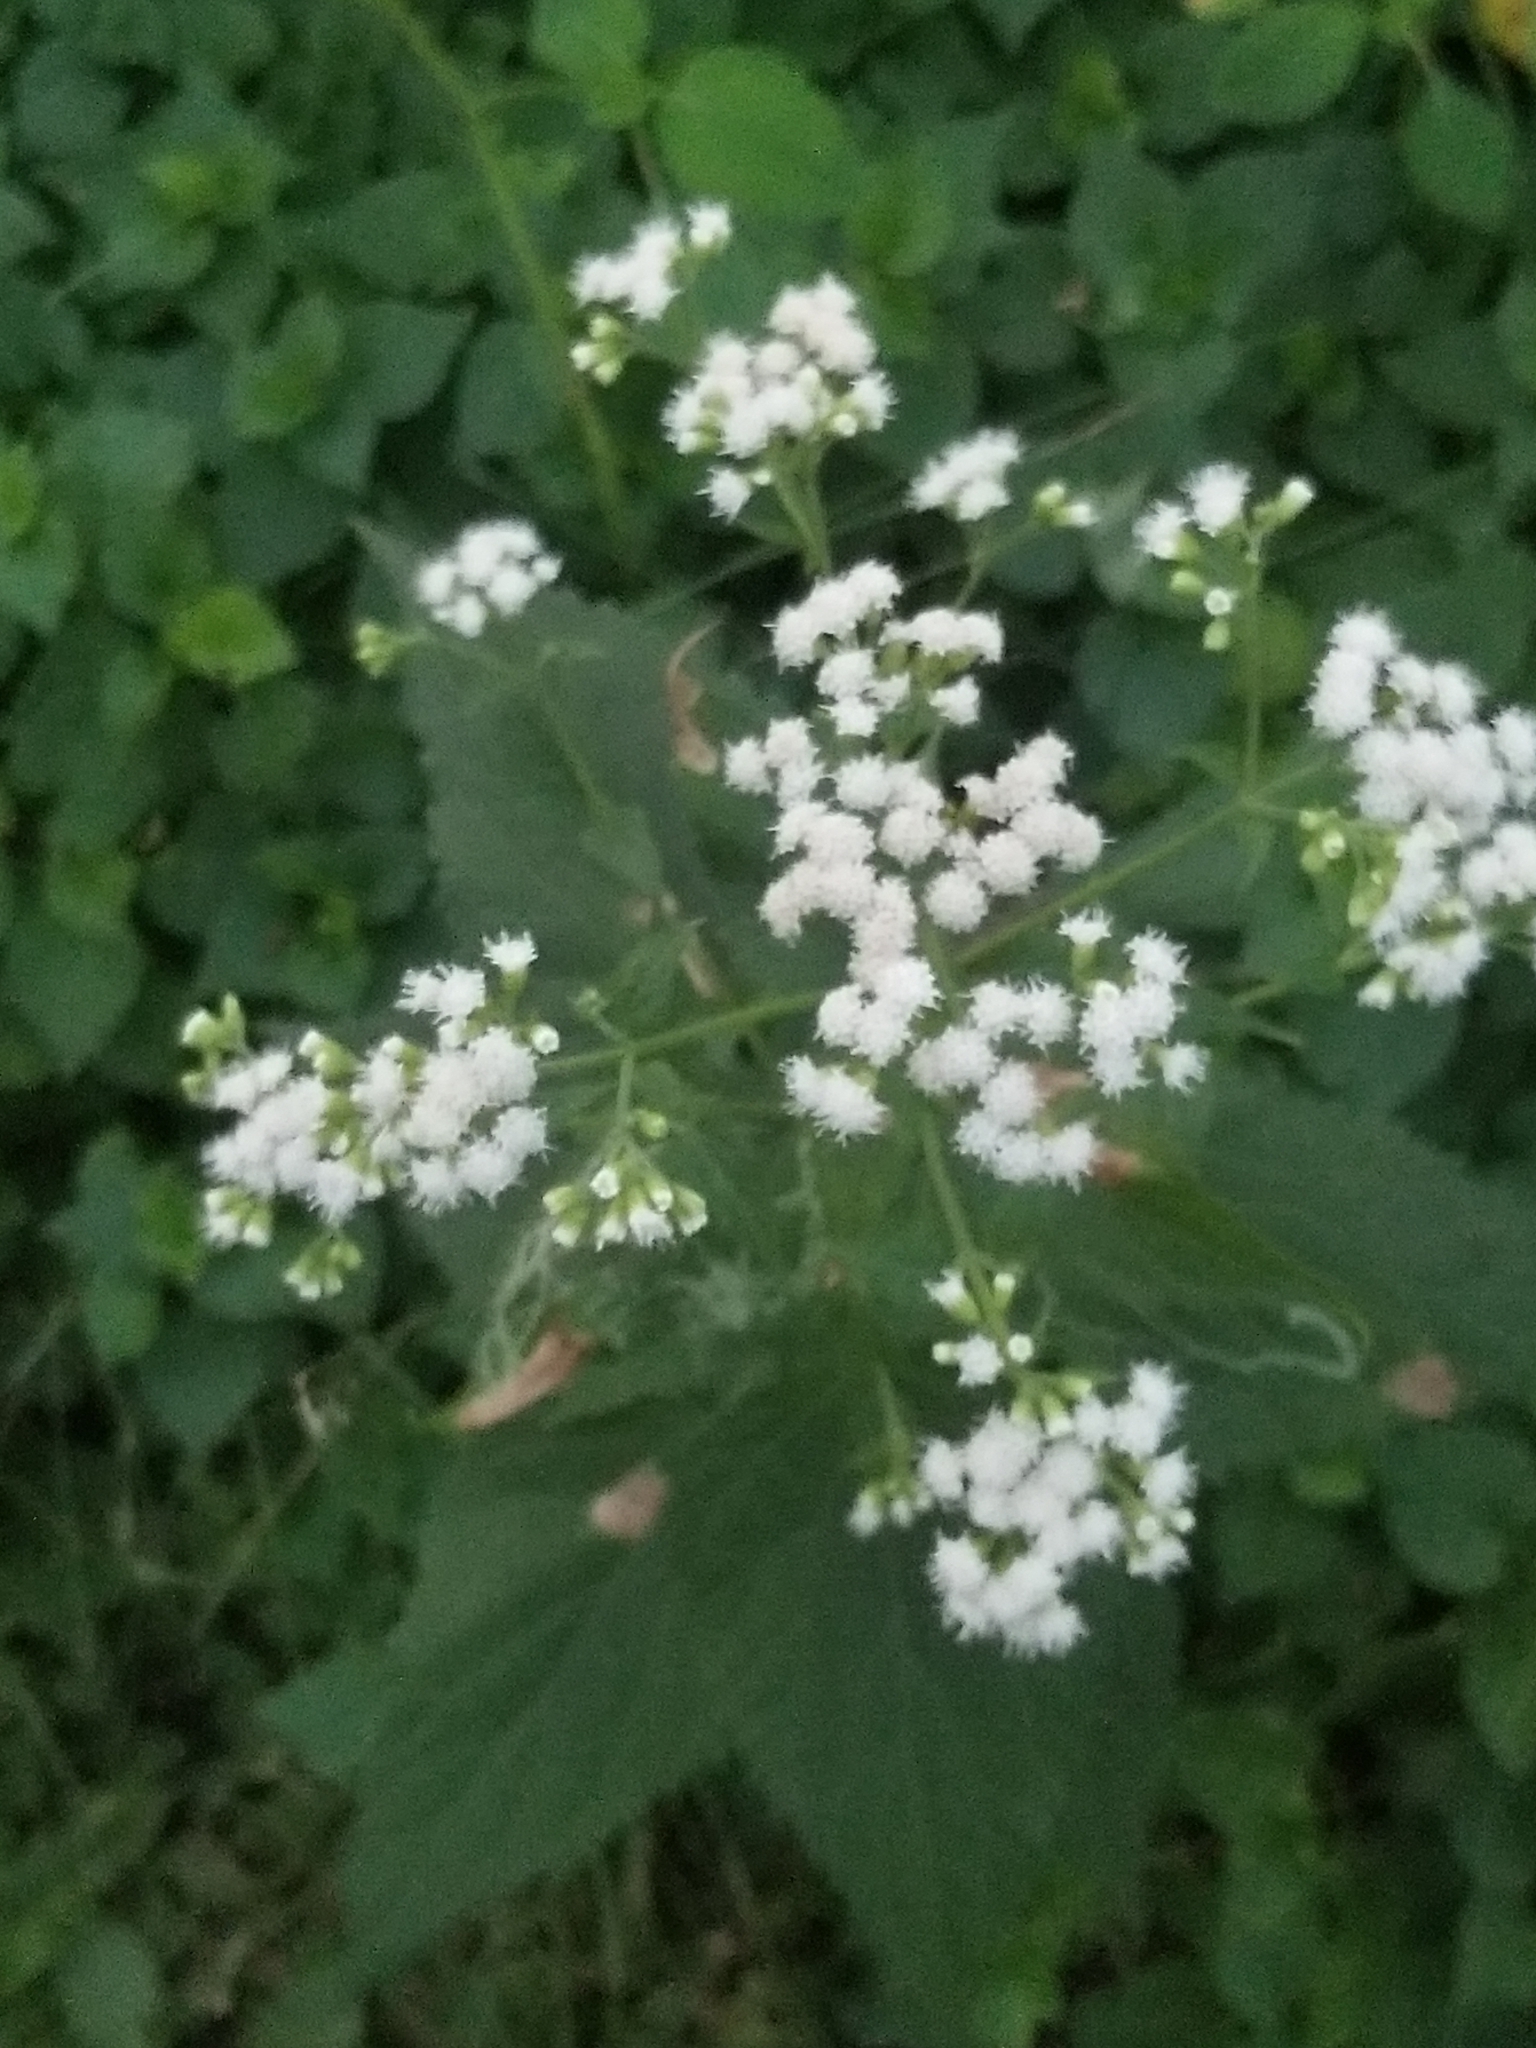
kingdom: Plantae
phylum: Tracheophyta
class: Magnoliopsida
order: Asterales
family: Asteraceae
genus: Ageratina
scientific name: Ageratina altissima
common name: White snakeroot
